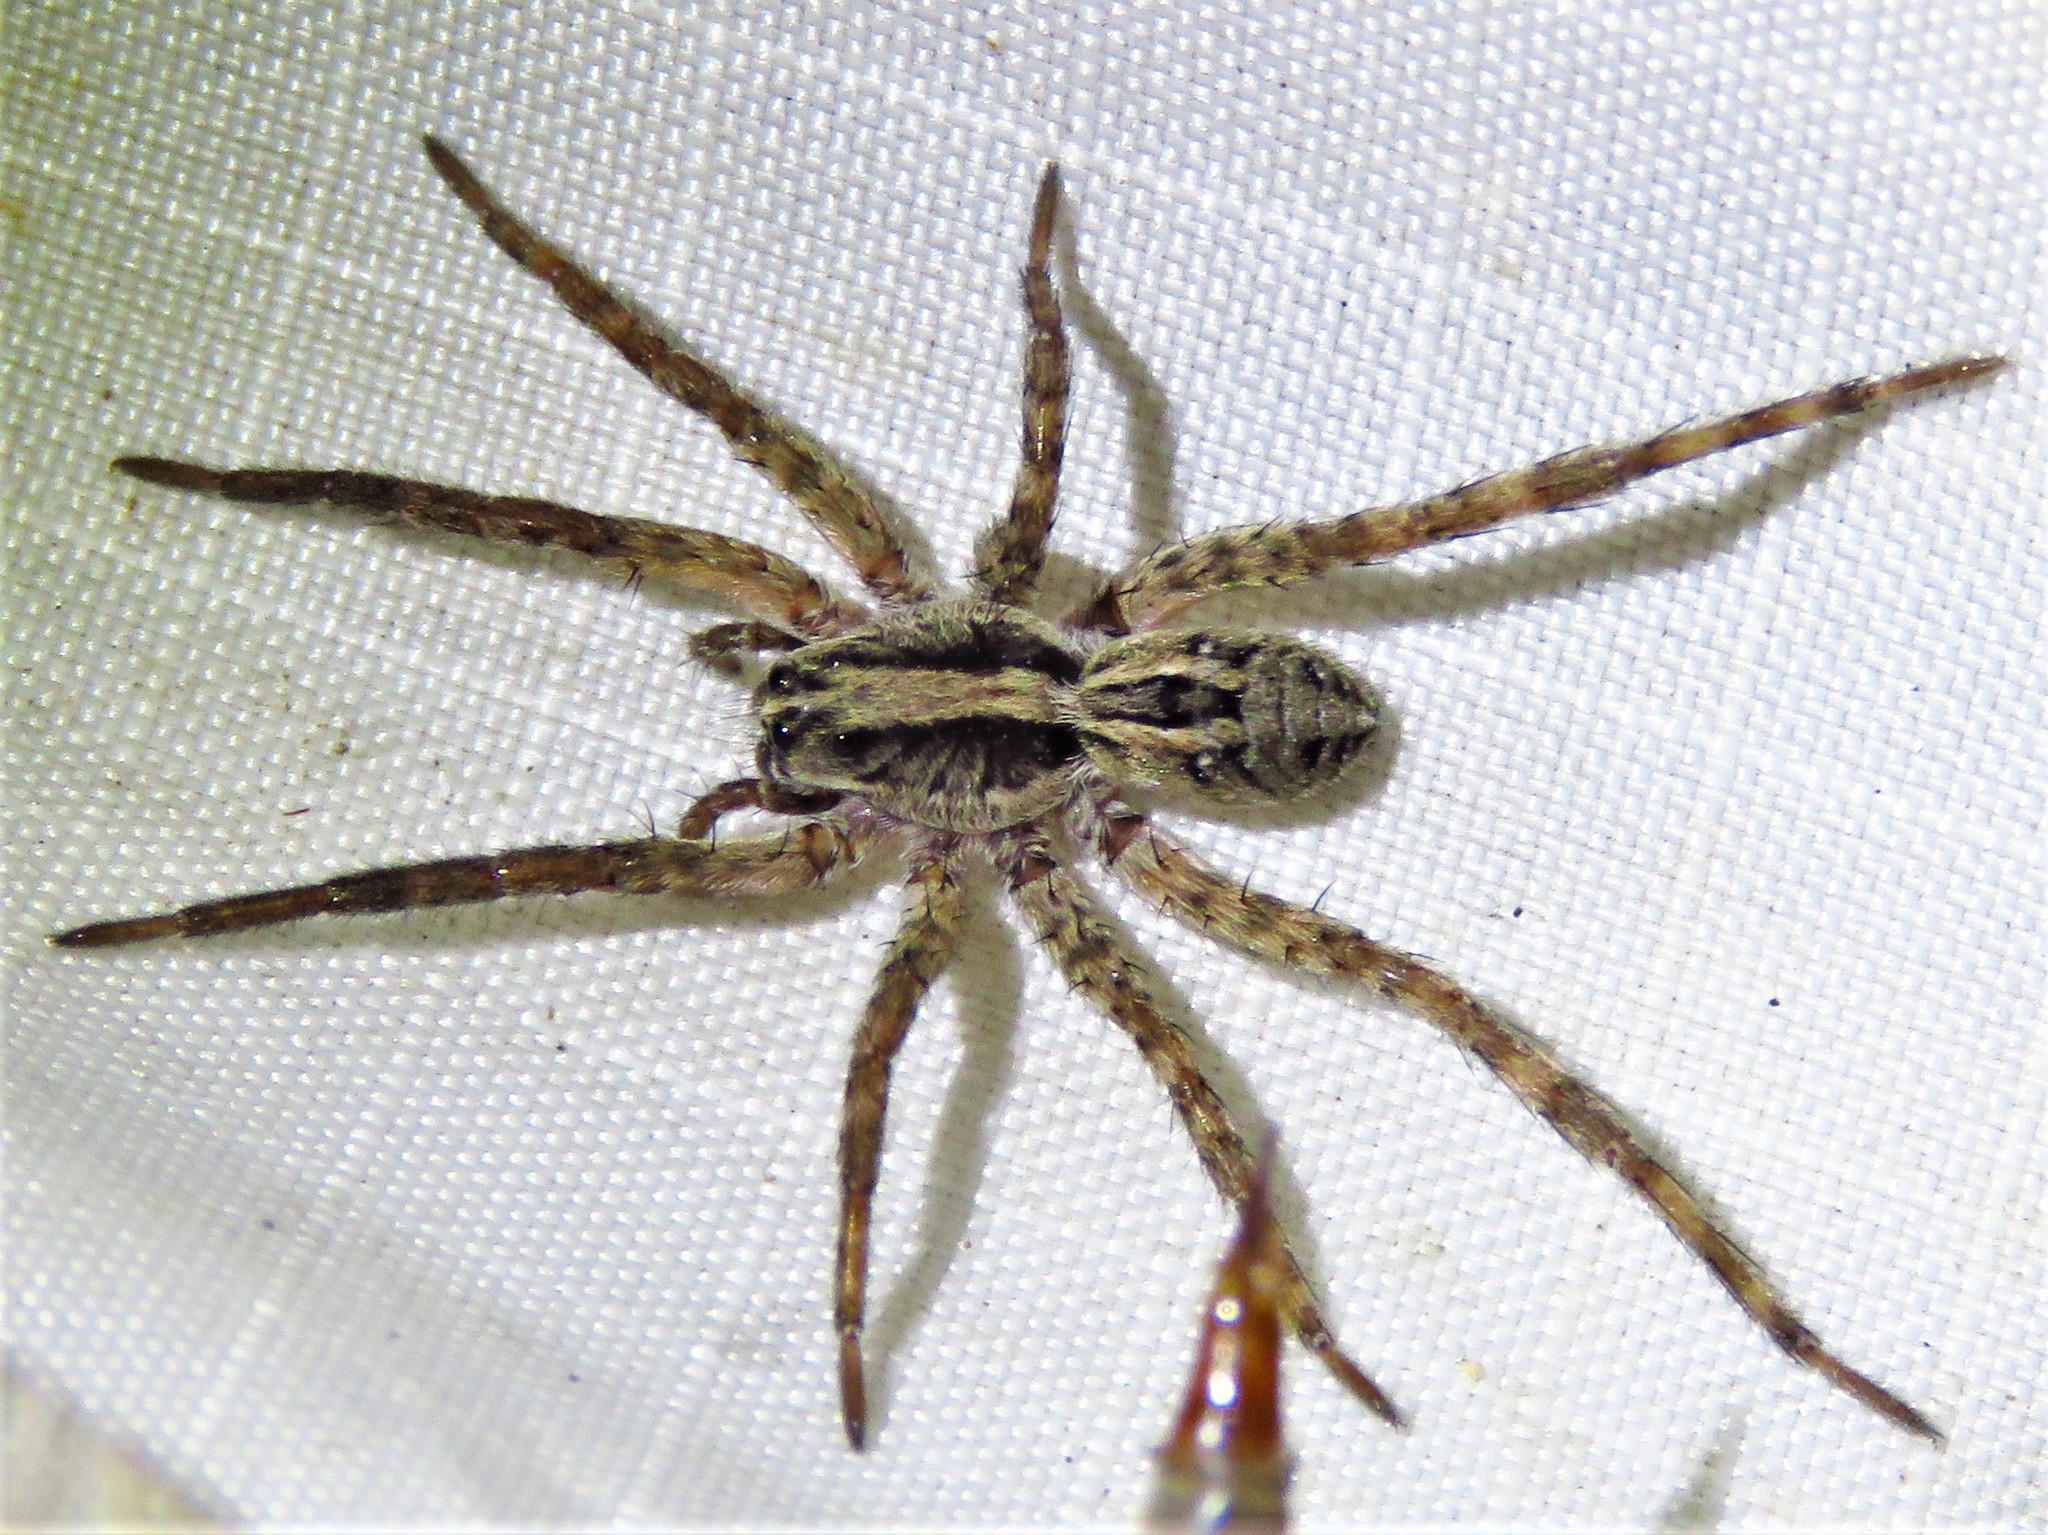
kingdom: Animalia
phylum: Arthropoda
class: Arachnida
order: Araneae
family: Lycosidae
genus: Schizocosa
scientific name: Schizocosa avida
